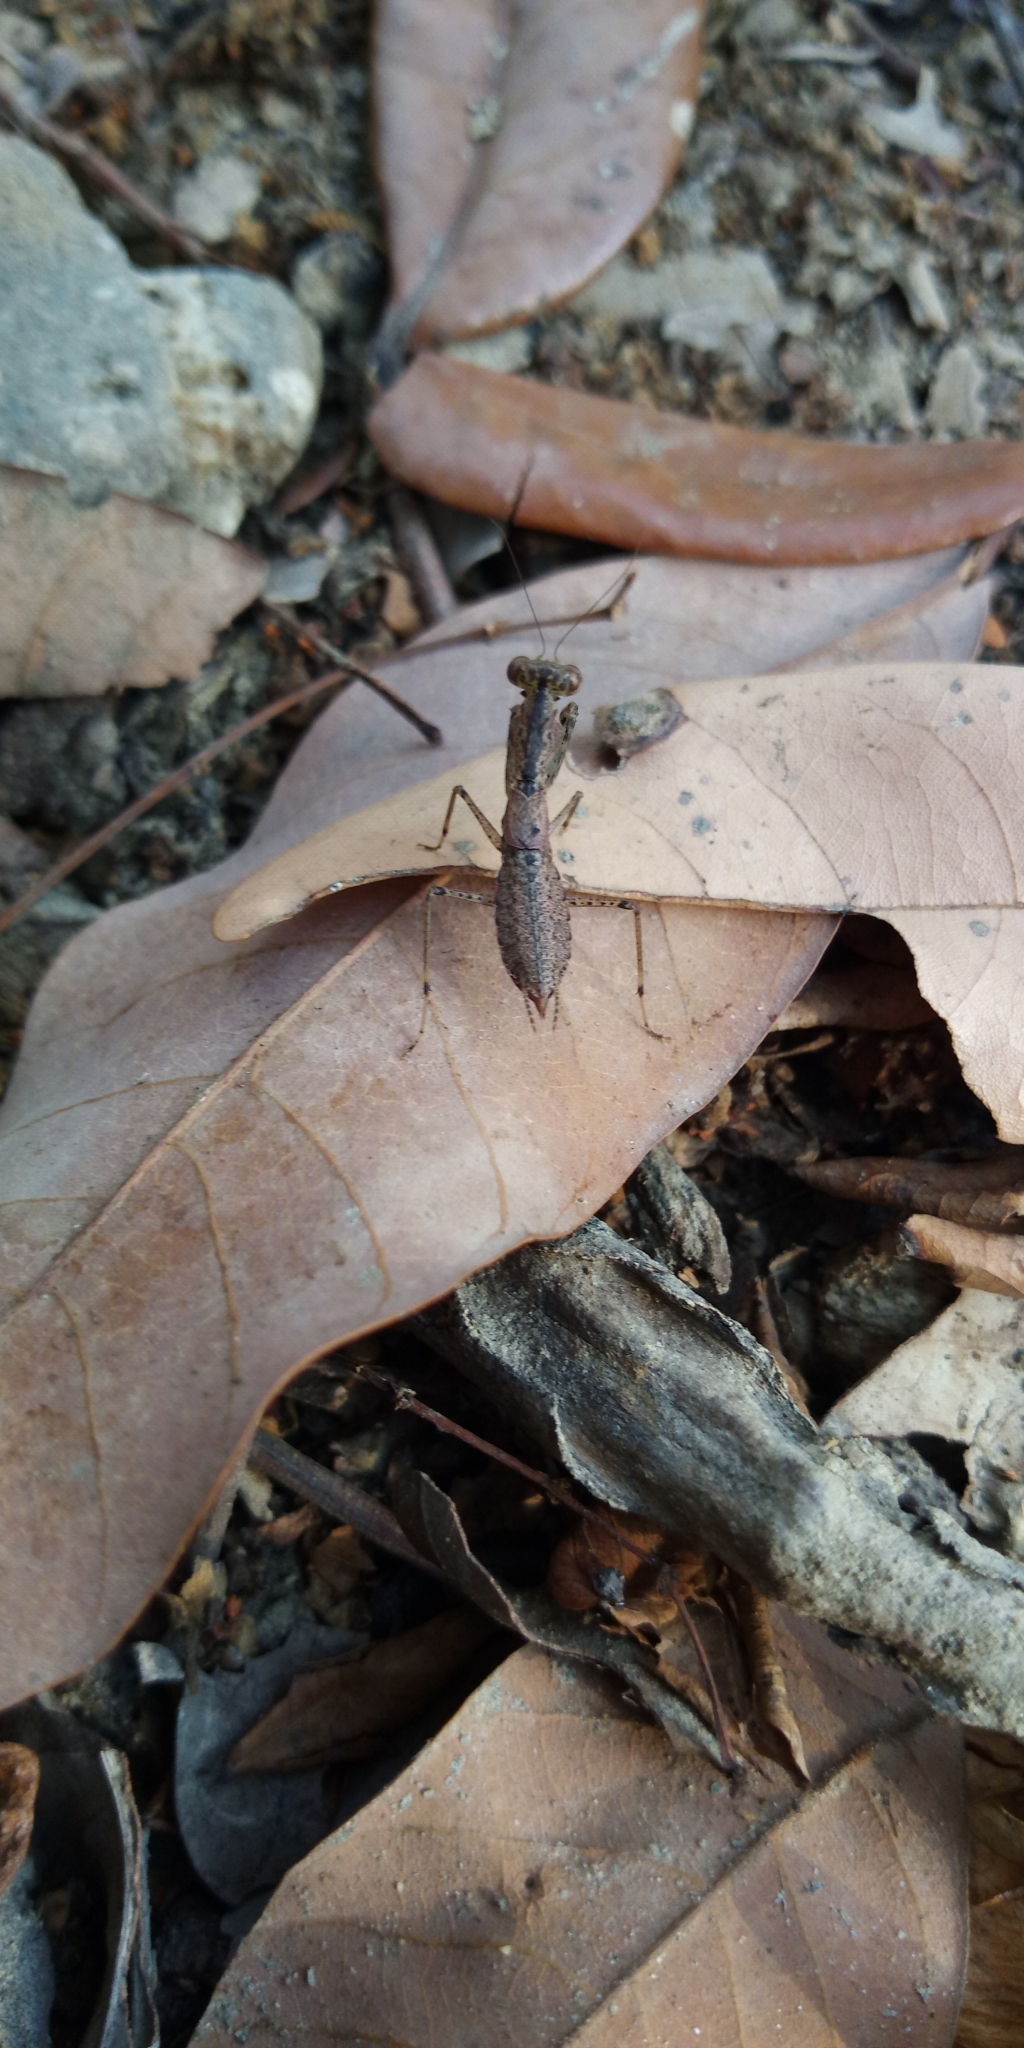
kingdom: Animalia
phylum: Arthropoda
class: Insecta
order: Mantodea
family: Gonypetidae
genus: Amantis
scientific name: Amantis nawai
